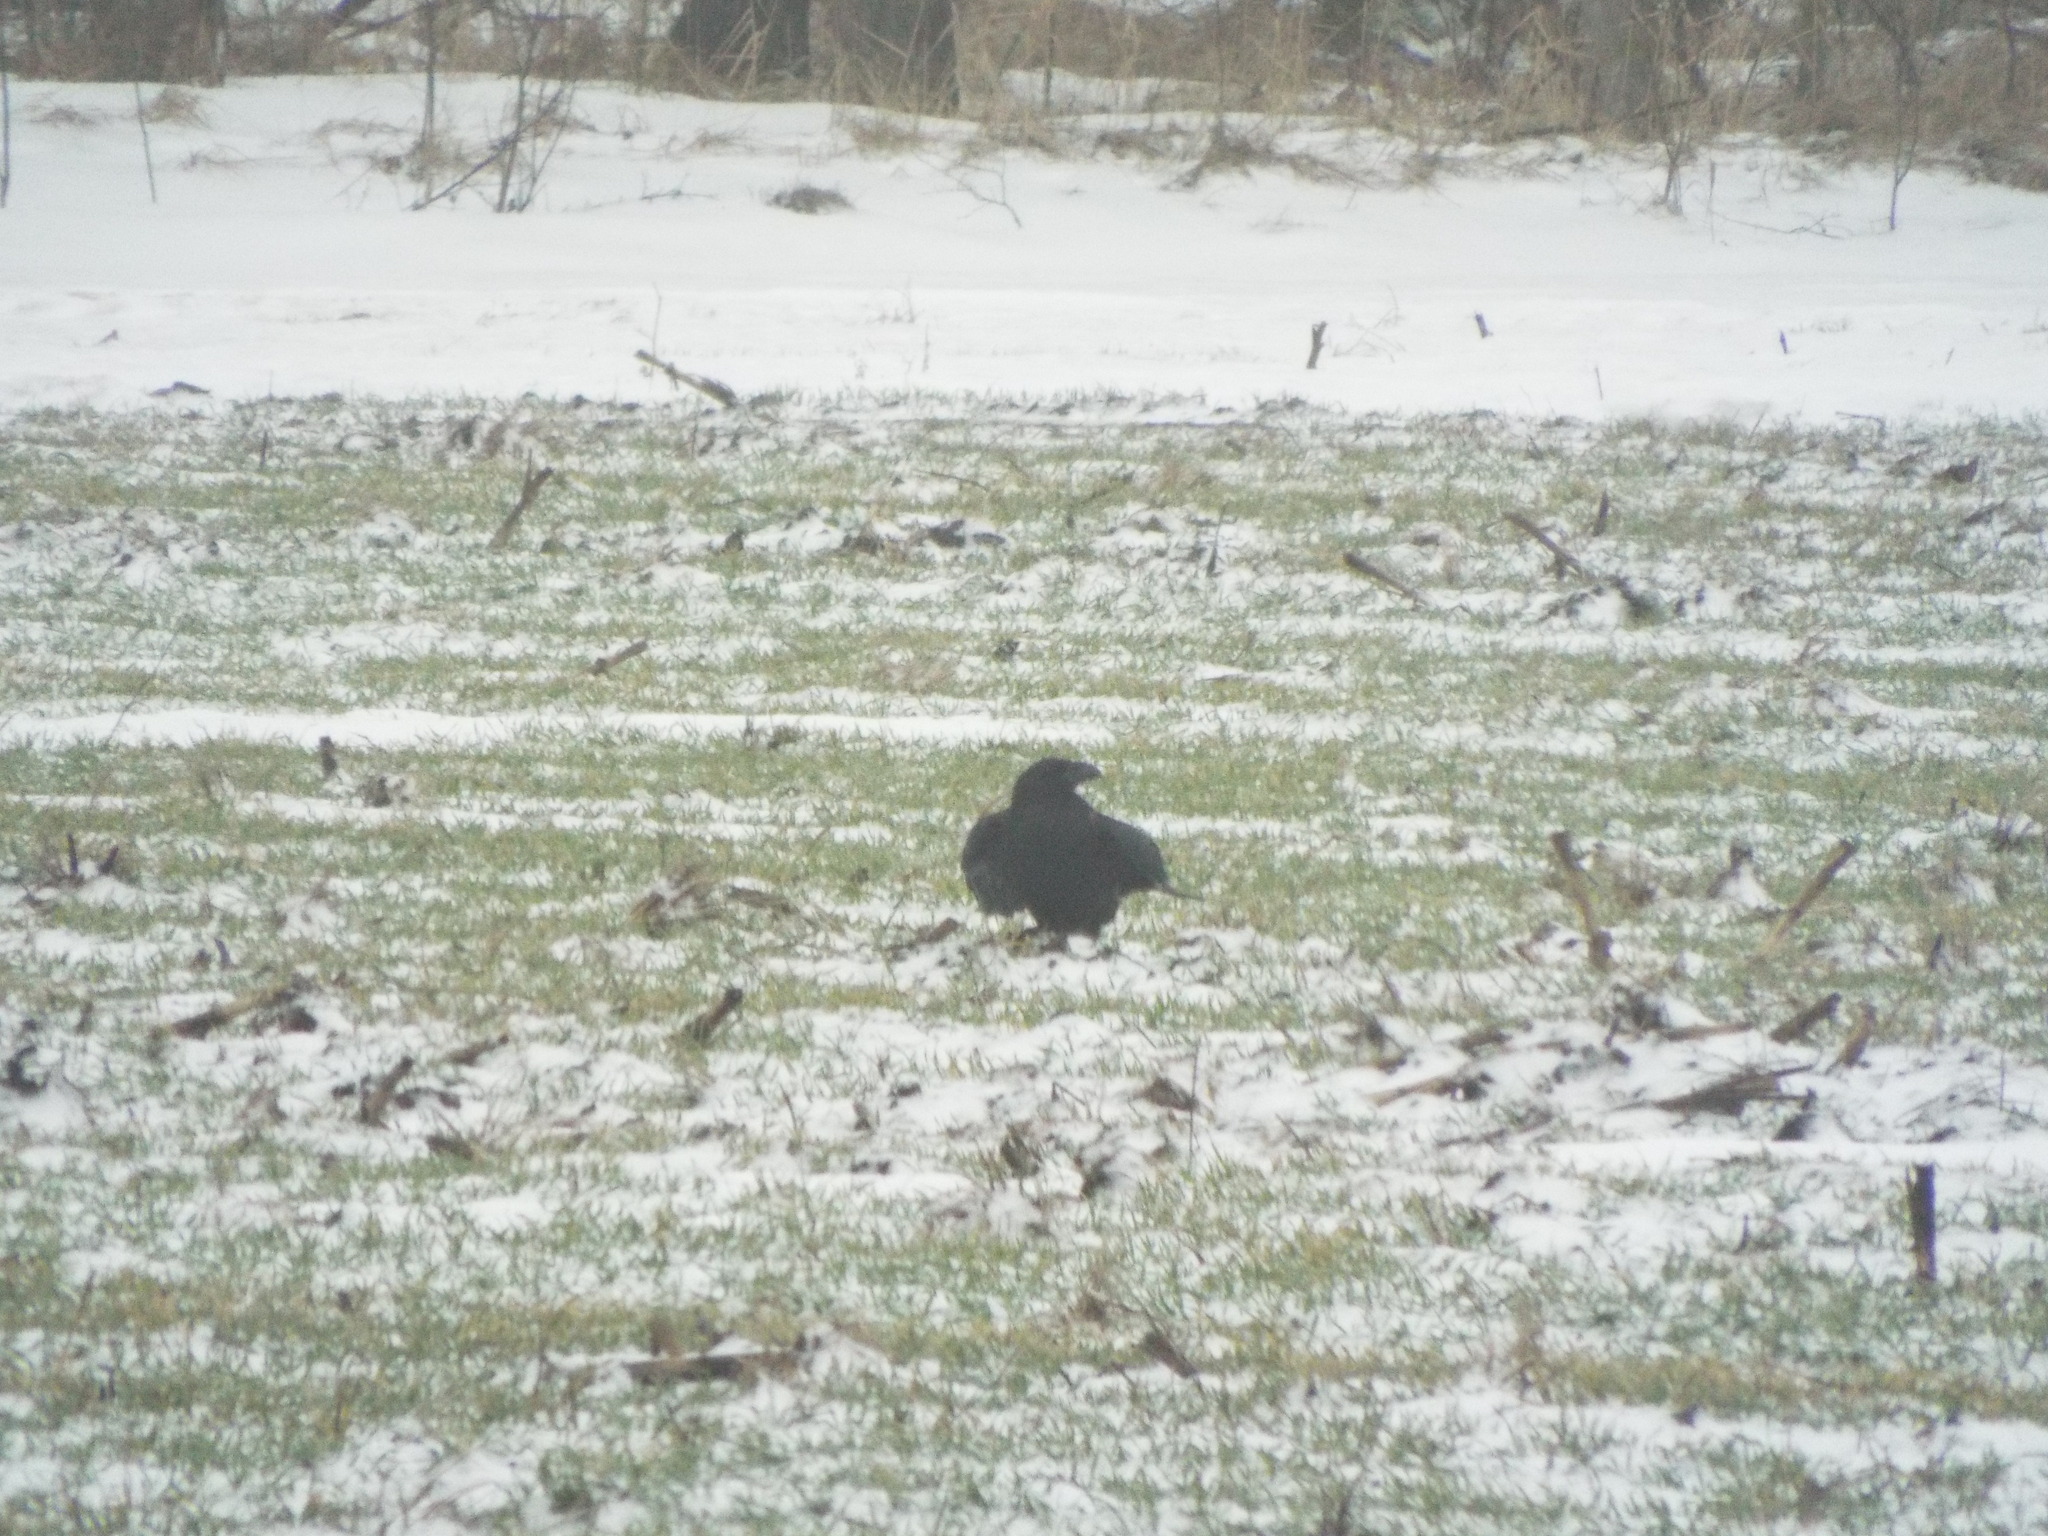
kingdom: Animalia
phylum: Chordata
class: Aves
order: Passeriformes
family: Corvidae
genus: Corvus
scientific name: Corvus corax
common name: Common raven
